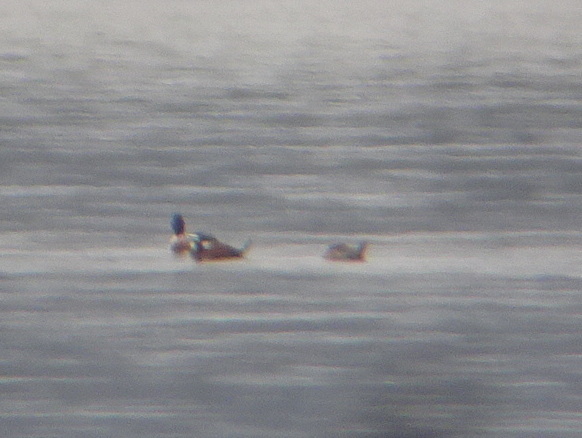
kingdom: Animalia
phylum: Chordata
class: Aves
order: Anseriformes
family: Anatidae
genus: Oxyura
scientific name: Oxyura jamaicensis
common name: Ruddy duck
